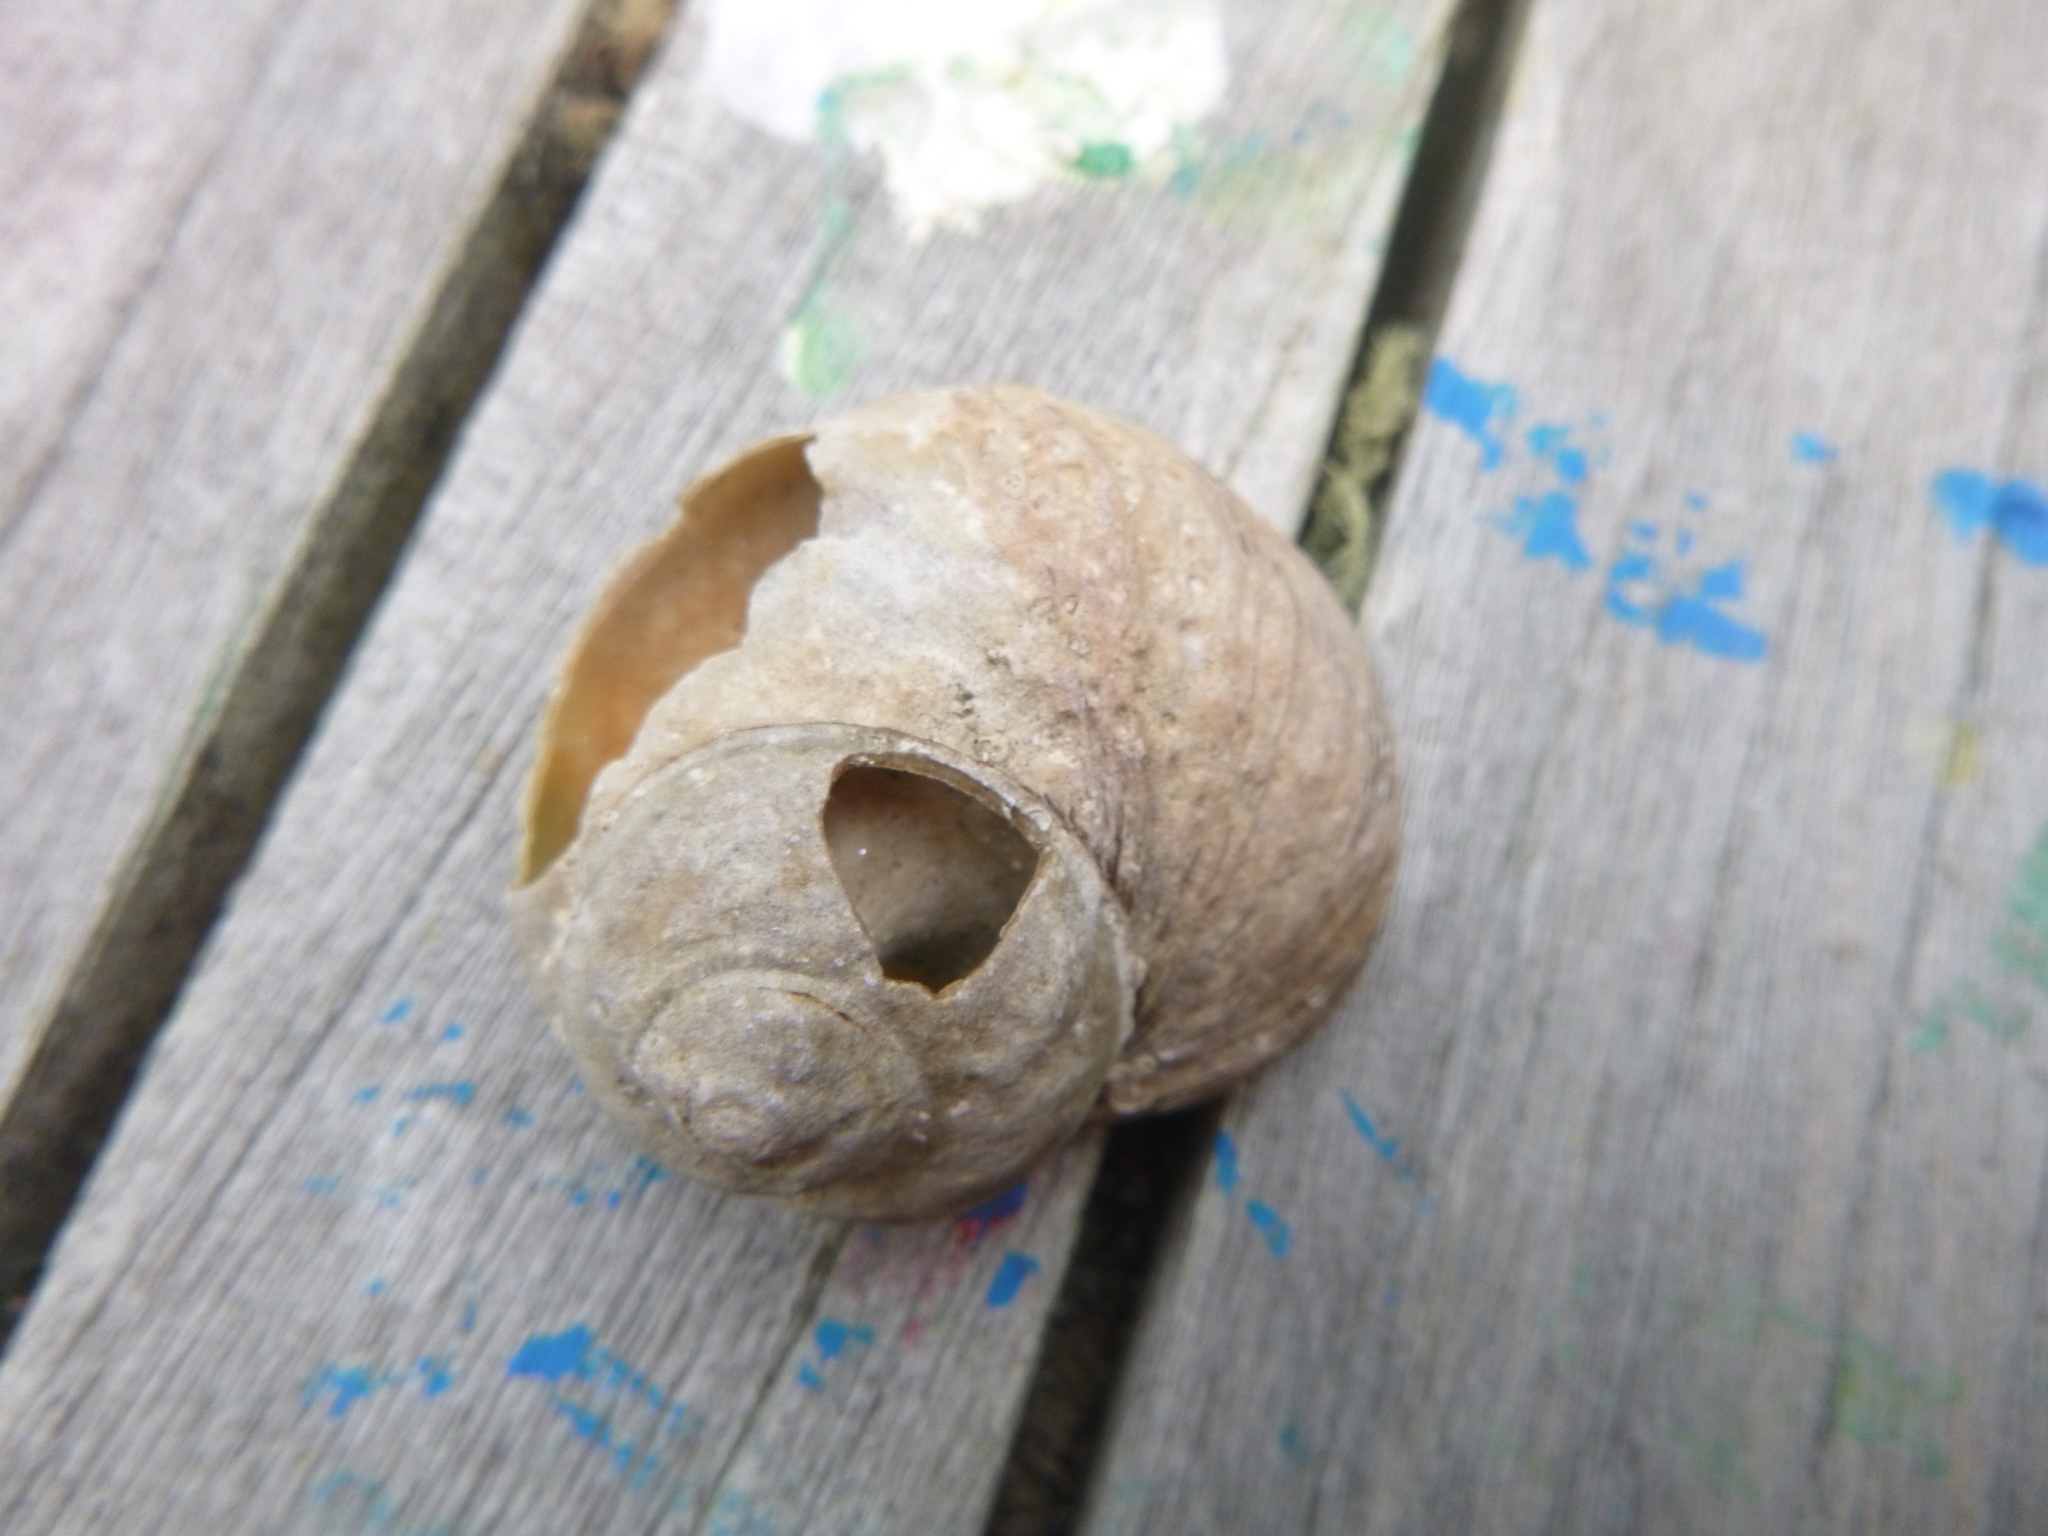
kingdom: Animalia
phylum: Mollusca
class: Gastropoda
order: Trochida
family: Turbinidae
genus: Lunella
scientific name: Lunella smaragda
